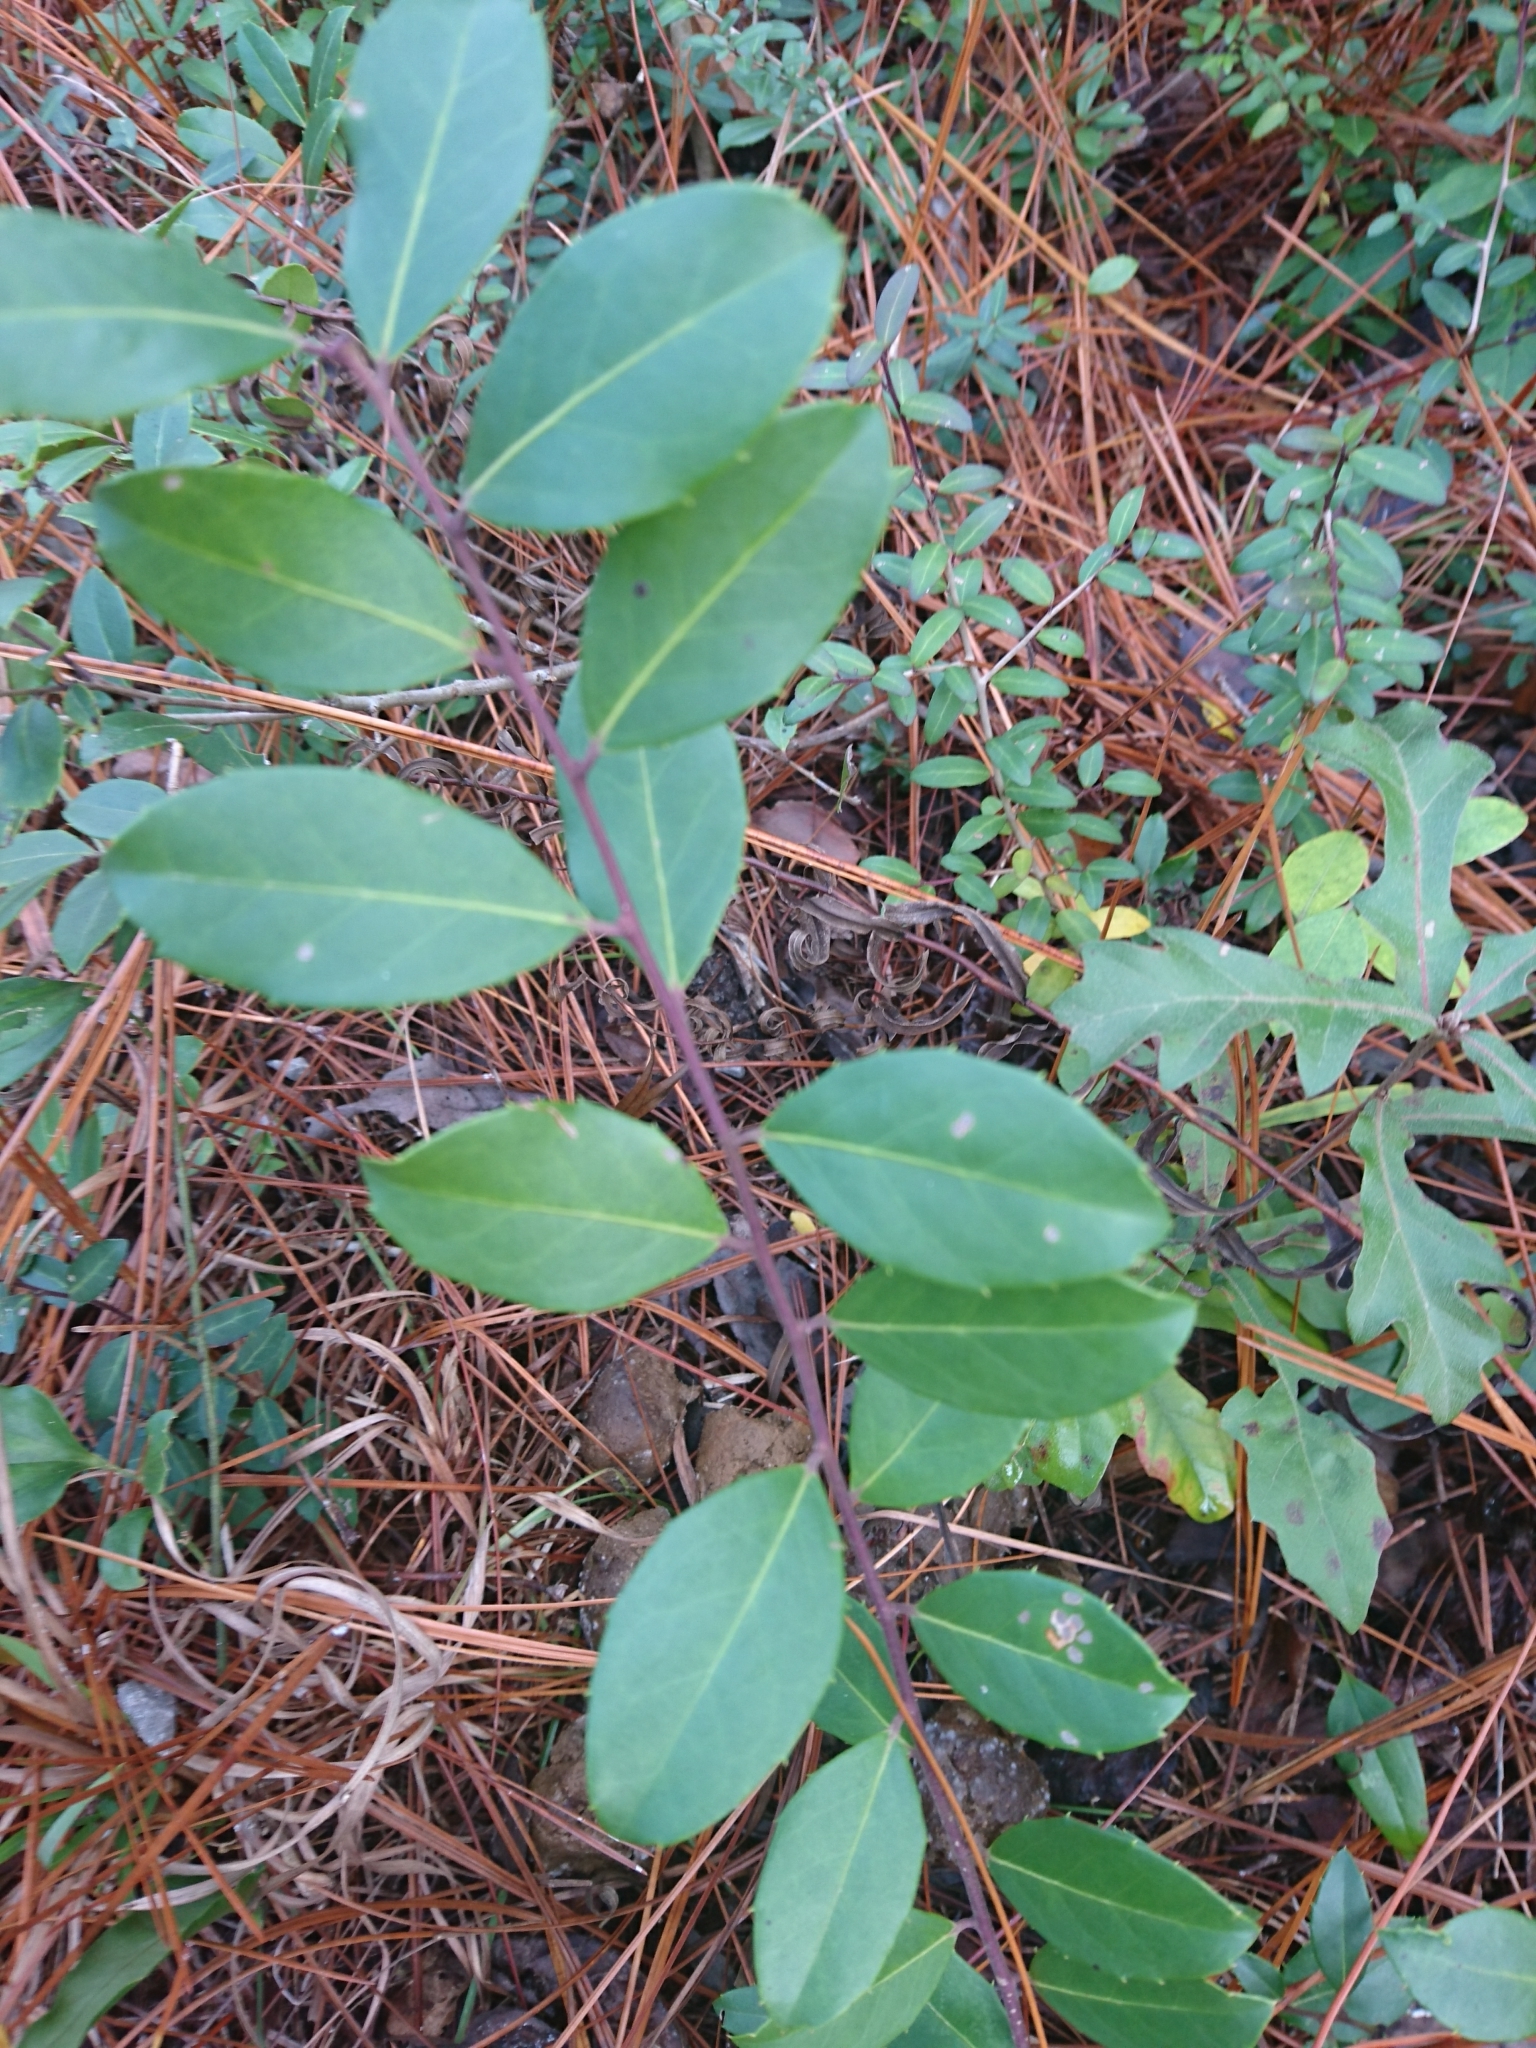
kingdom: Plantae
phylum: Tracheophyta
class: Magnoliopsida
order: Aquifoliales
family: Aquifoliaceae
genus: Ilex
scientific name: Ilex coriacea
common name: Sweet gallberry
